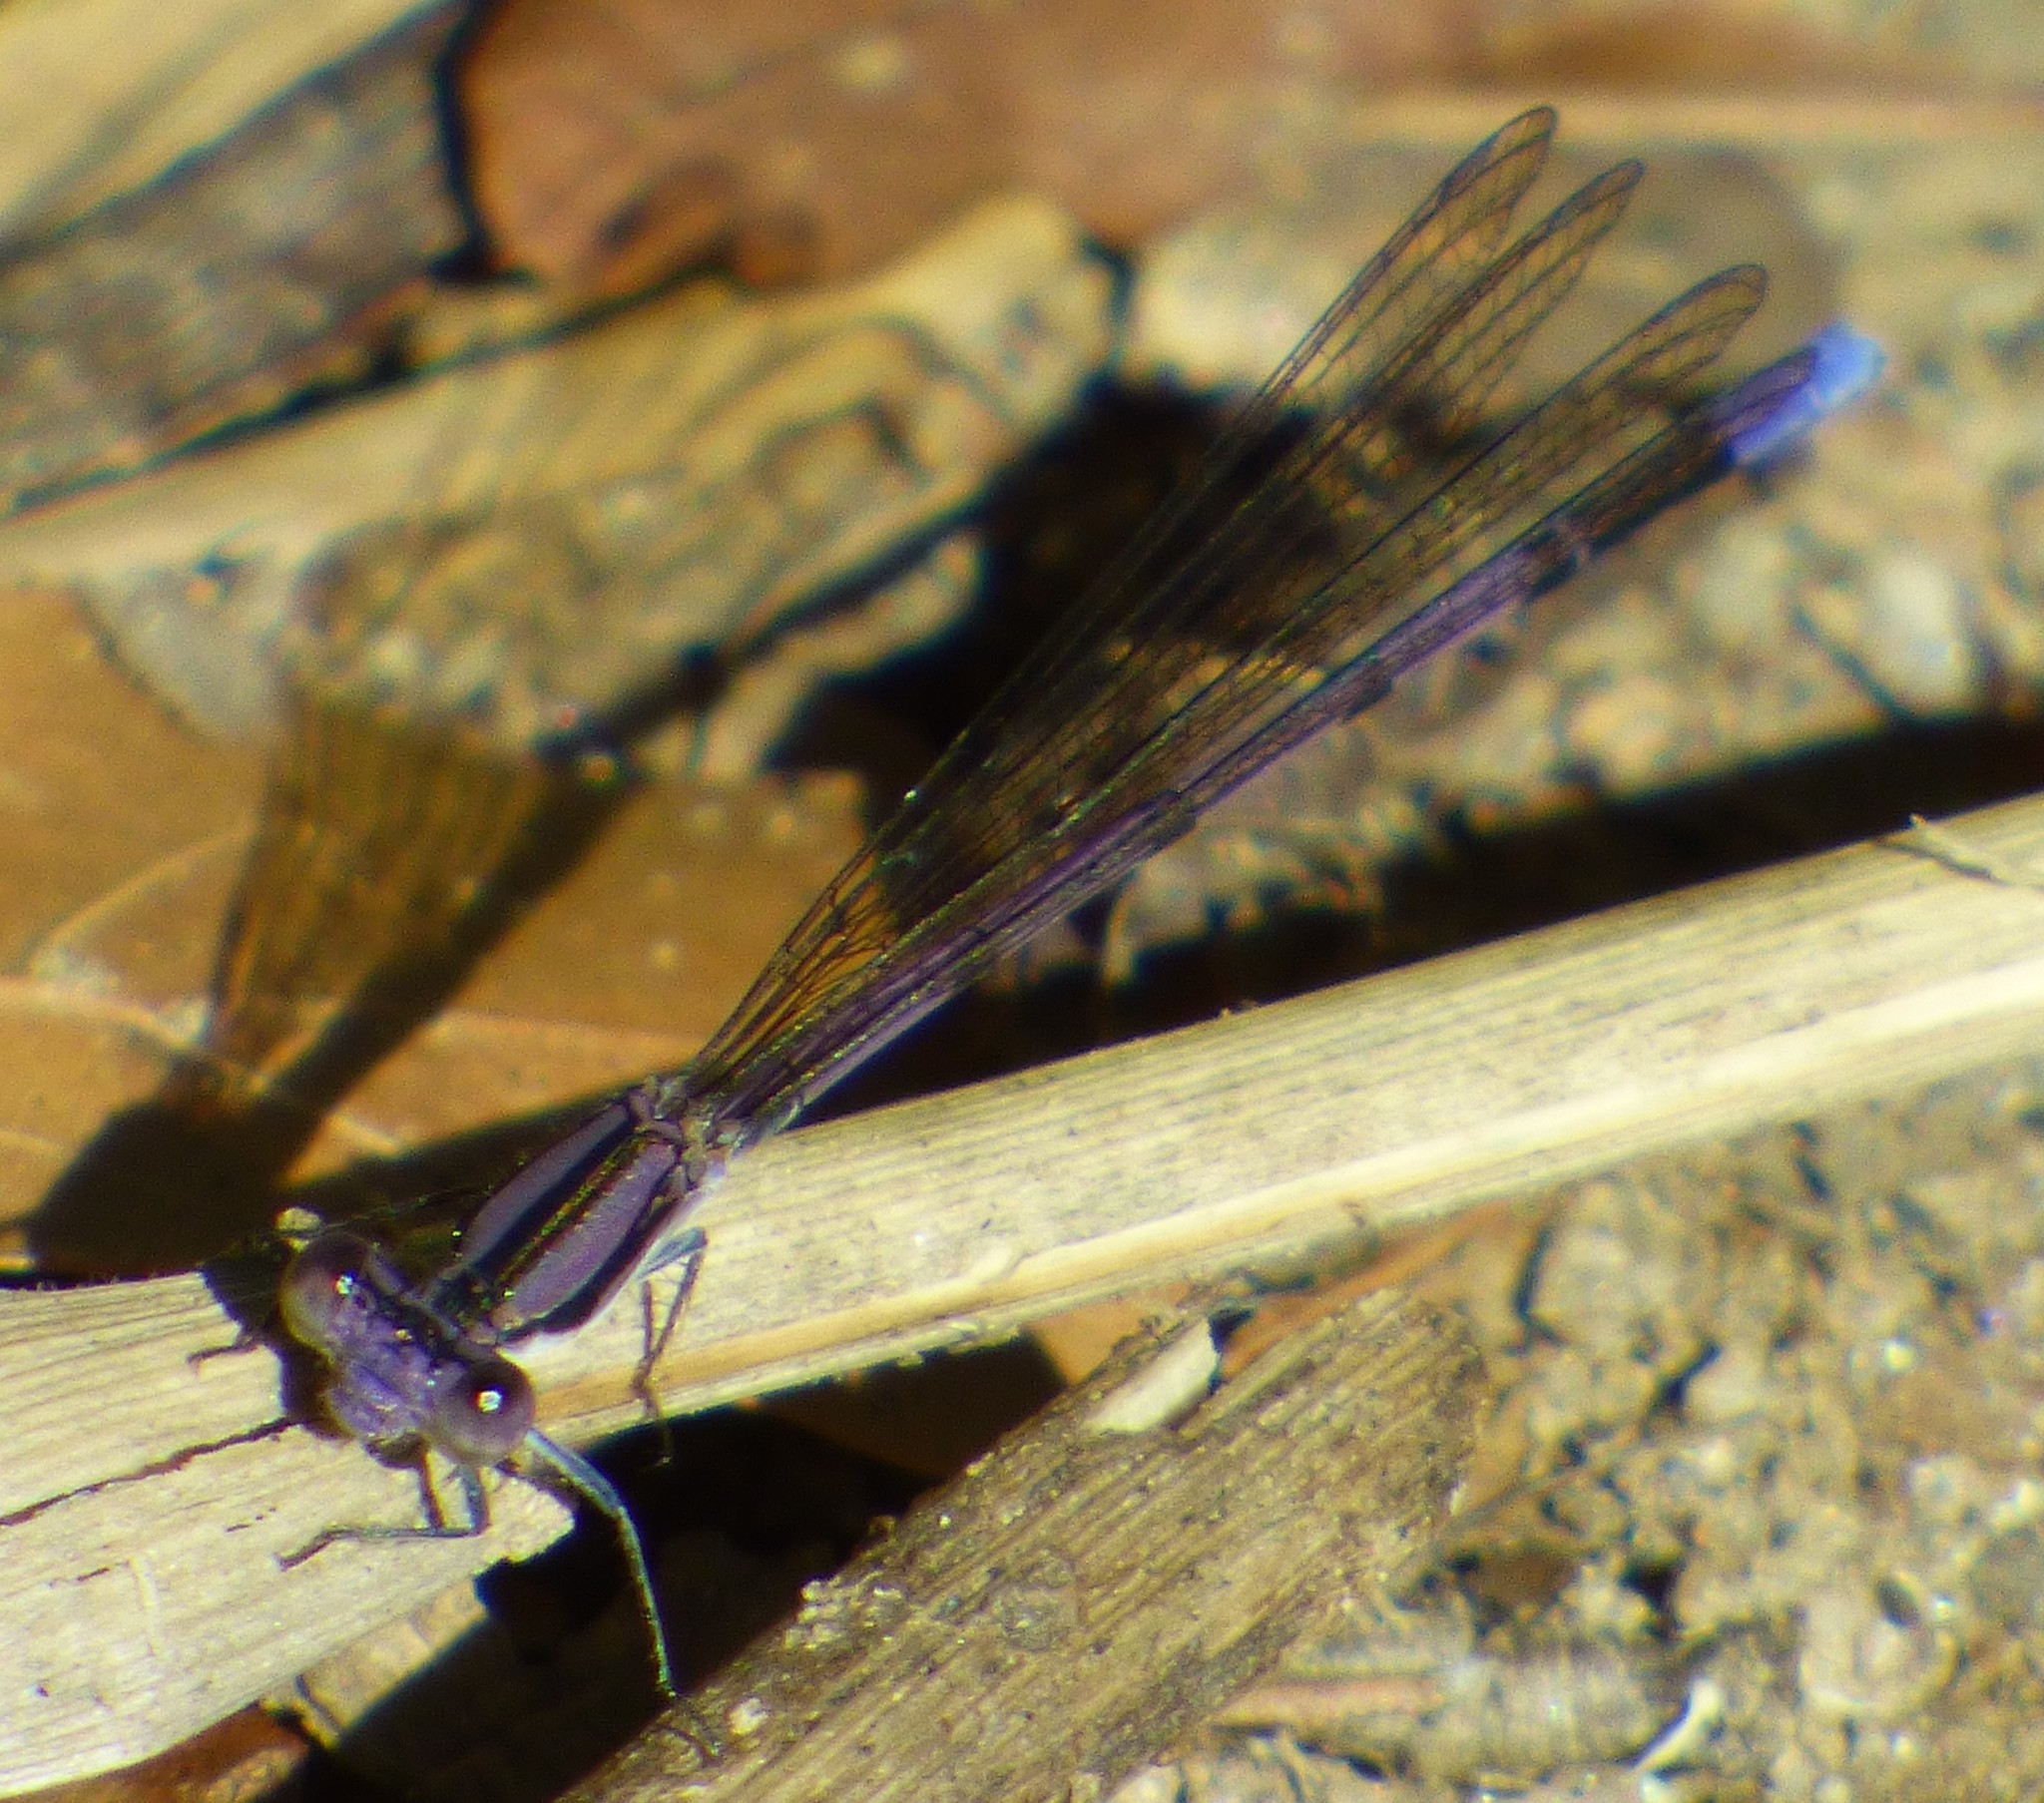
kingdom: Animalia
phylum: Arthropoda
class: Insecta
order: Odonata
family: Coenagrionidae
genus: Argia
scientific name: Argia fumipennis
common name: Variable dancer
